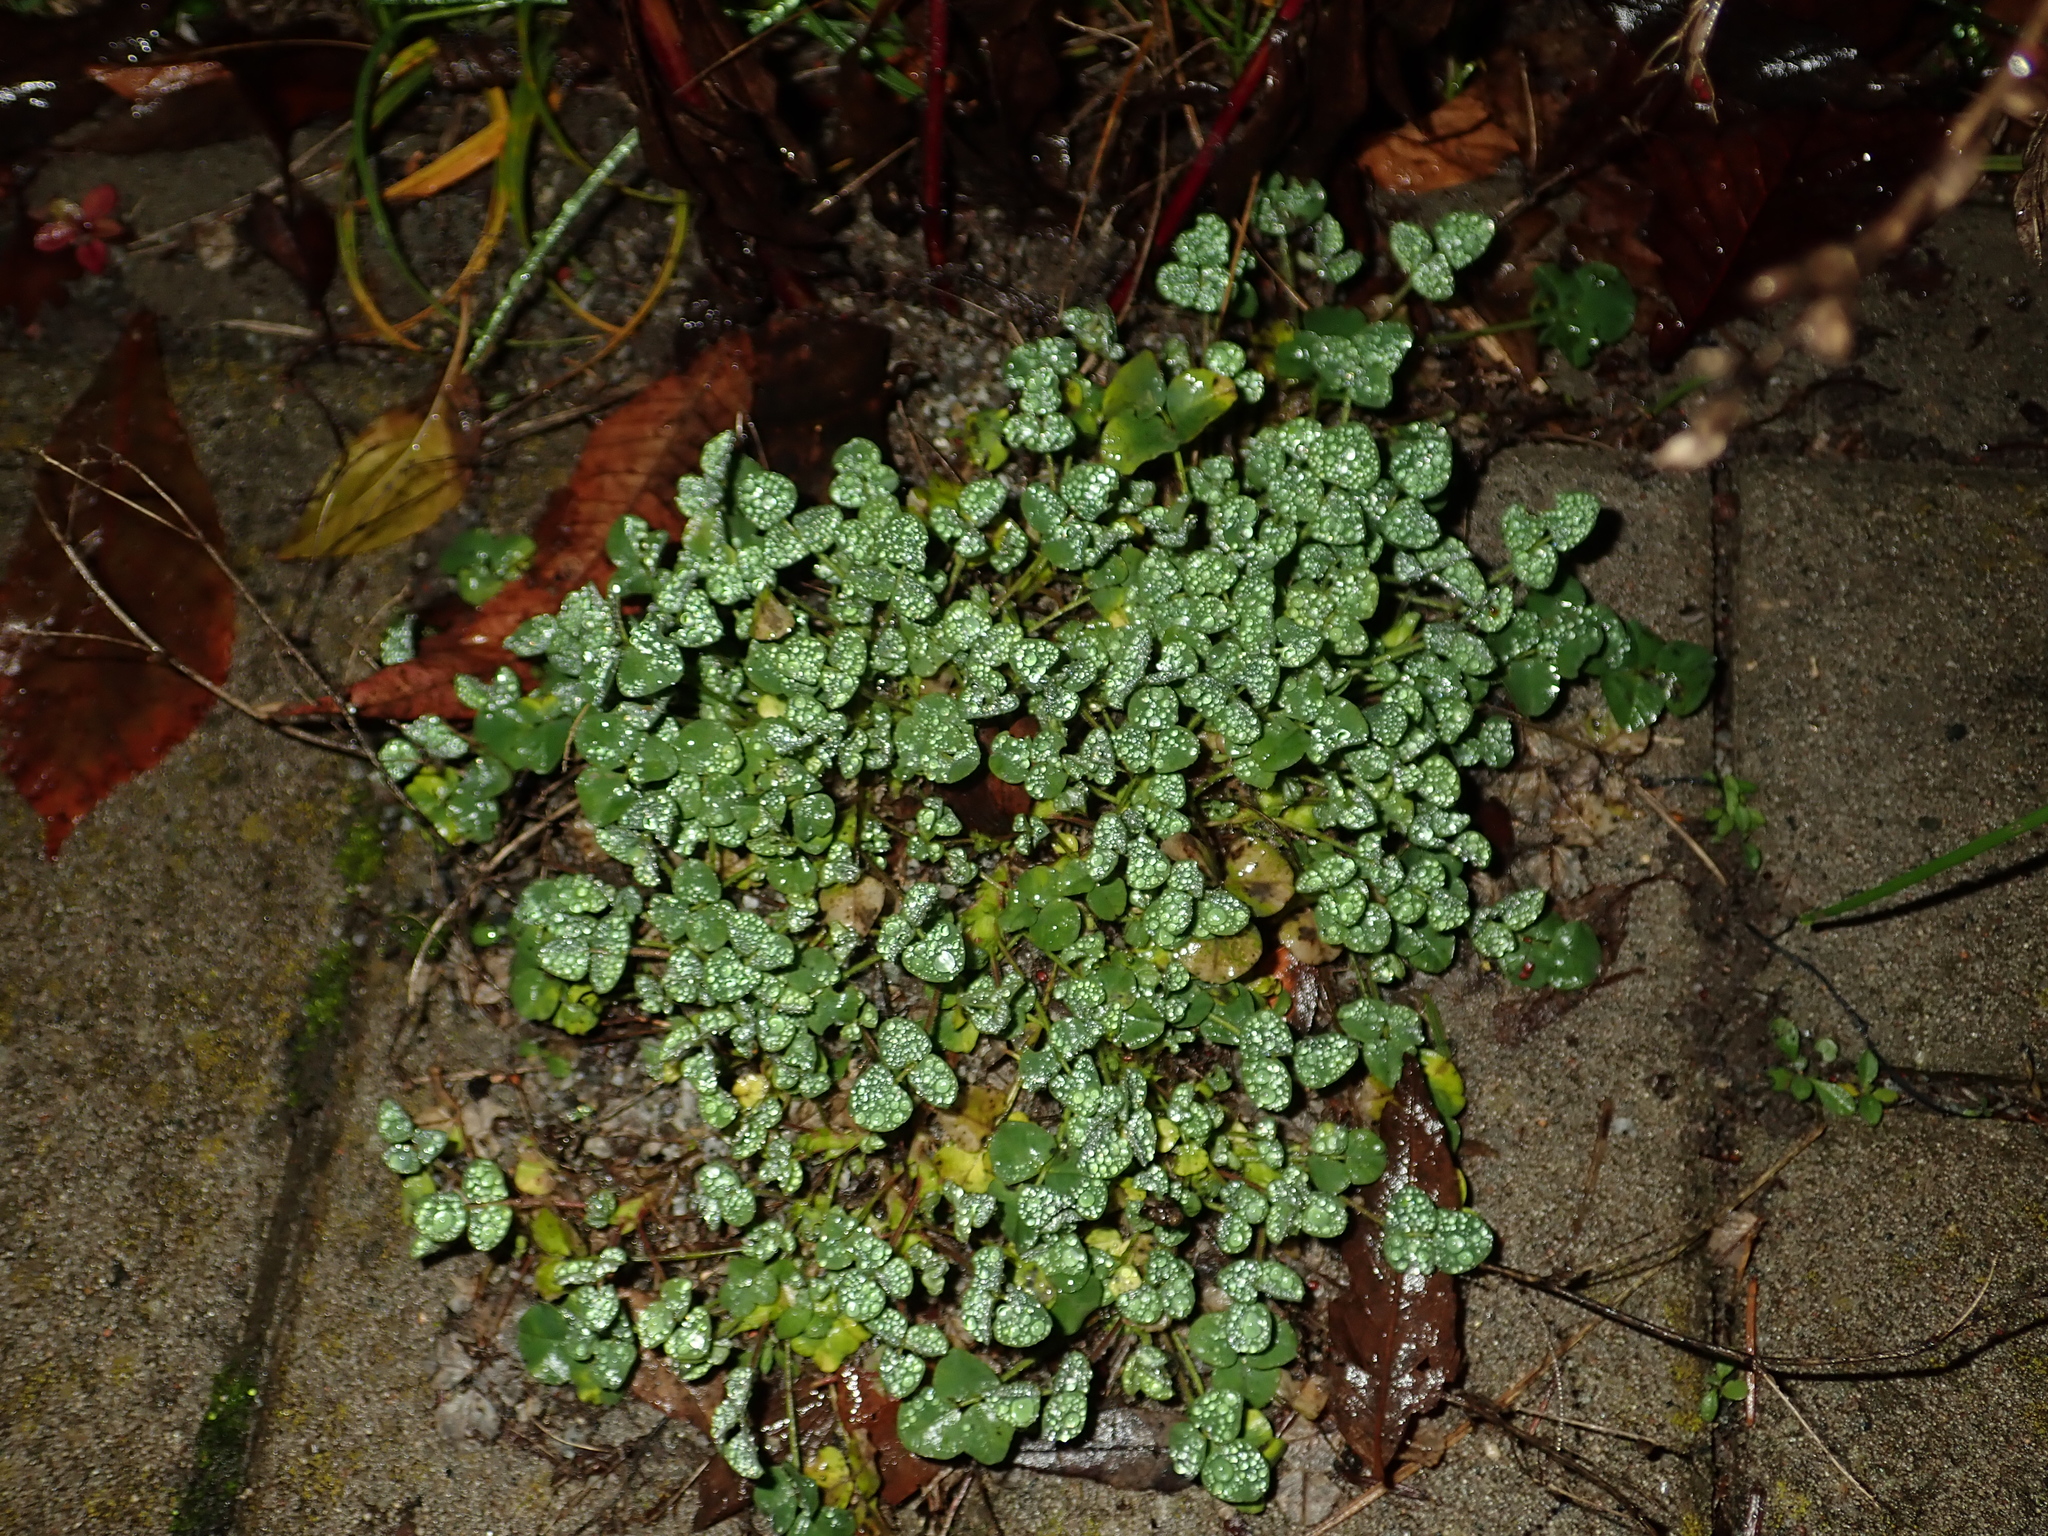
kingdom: Plantae
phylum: Tracheophyta
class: Magnoliopsida
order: Fabales
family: Fabaceae
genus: Medicago
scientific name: Medicago lupulina
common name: Black medick
